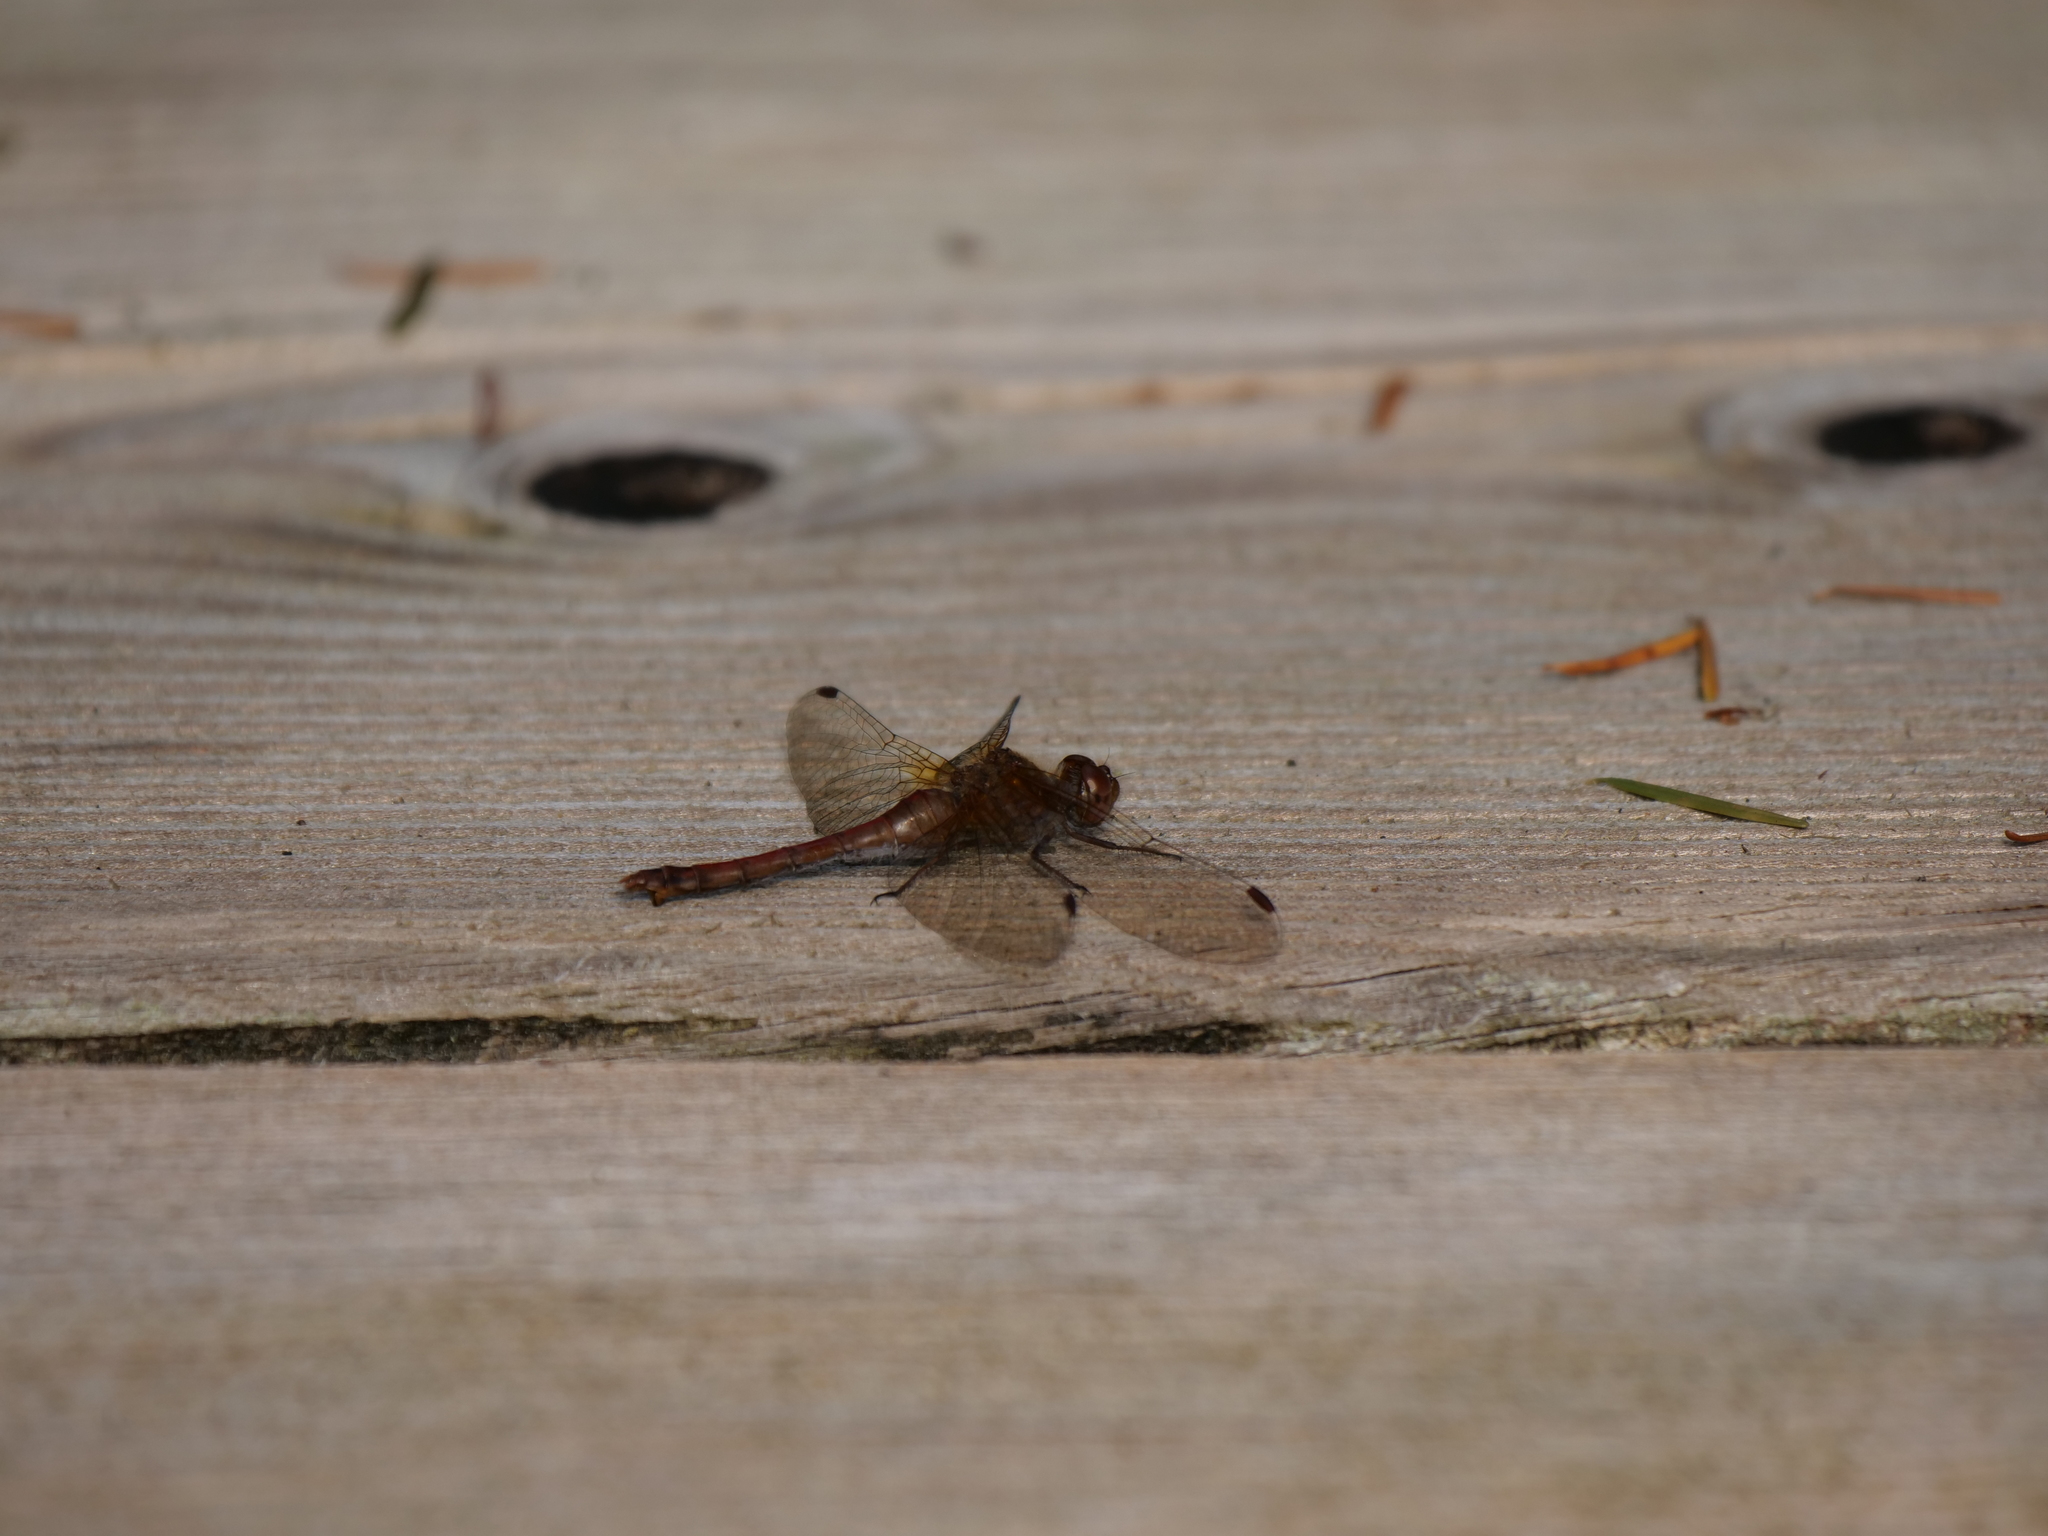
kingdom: Animalia
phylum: Arthropoda
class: Insecta
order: Odonata
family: Libellulidae
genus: Sympetrum
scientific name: Sympetrum vicinum
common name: Autumn meadowhawk
